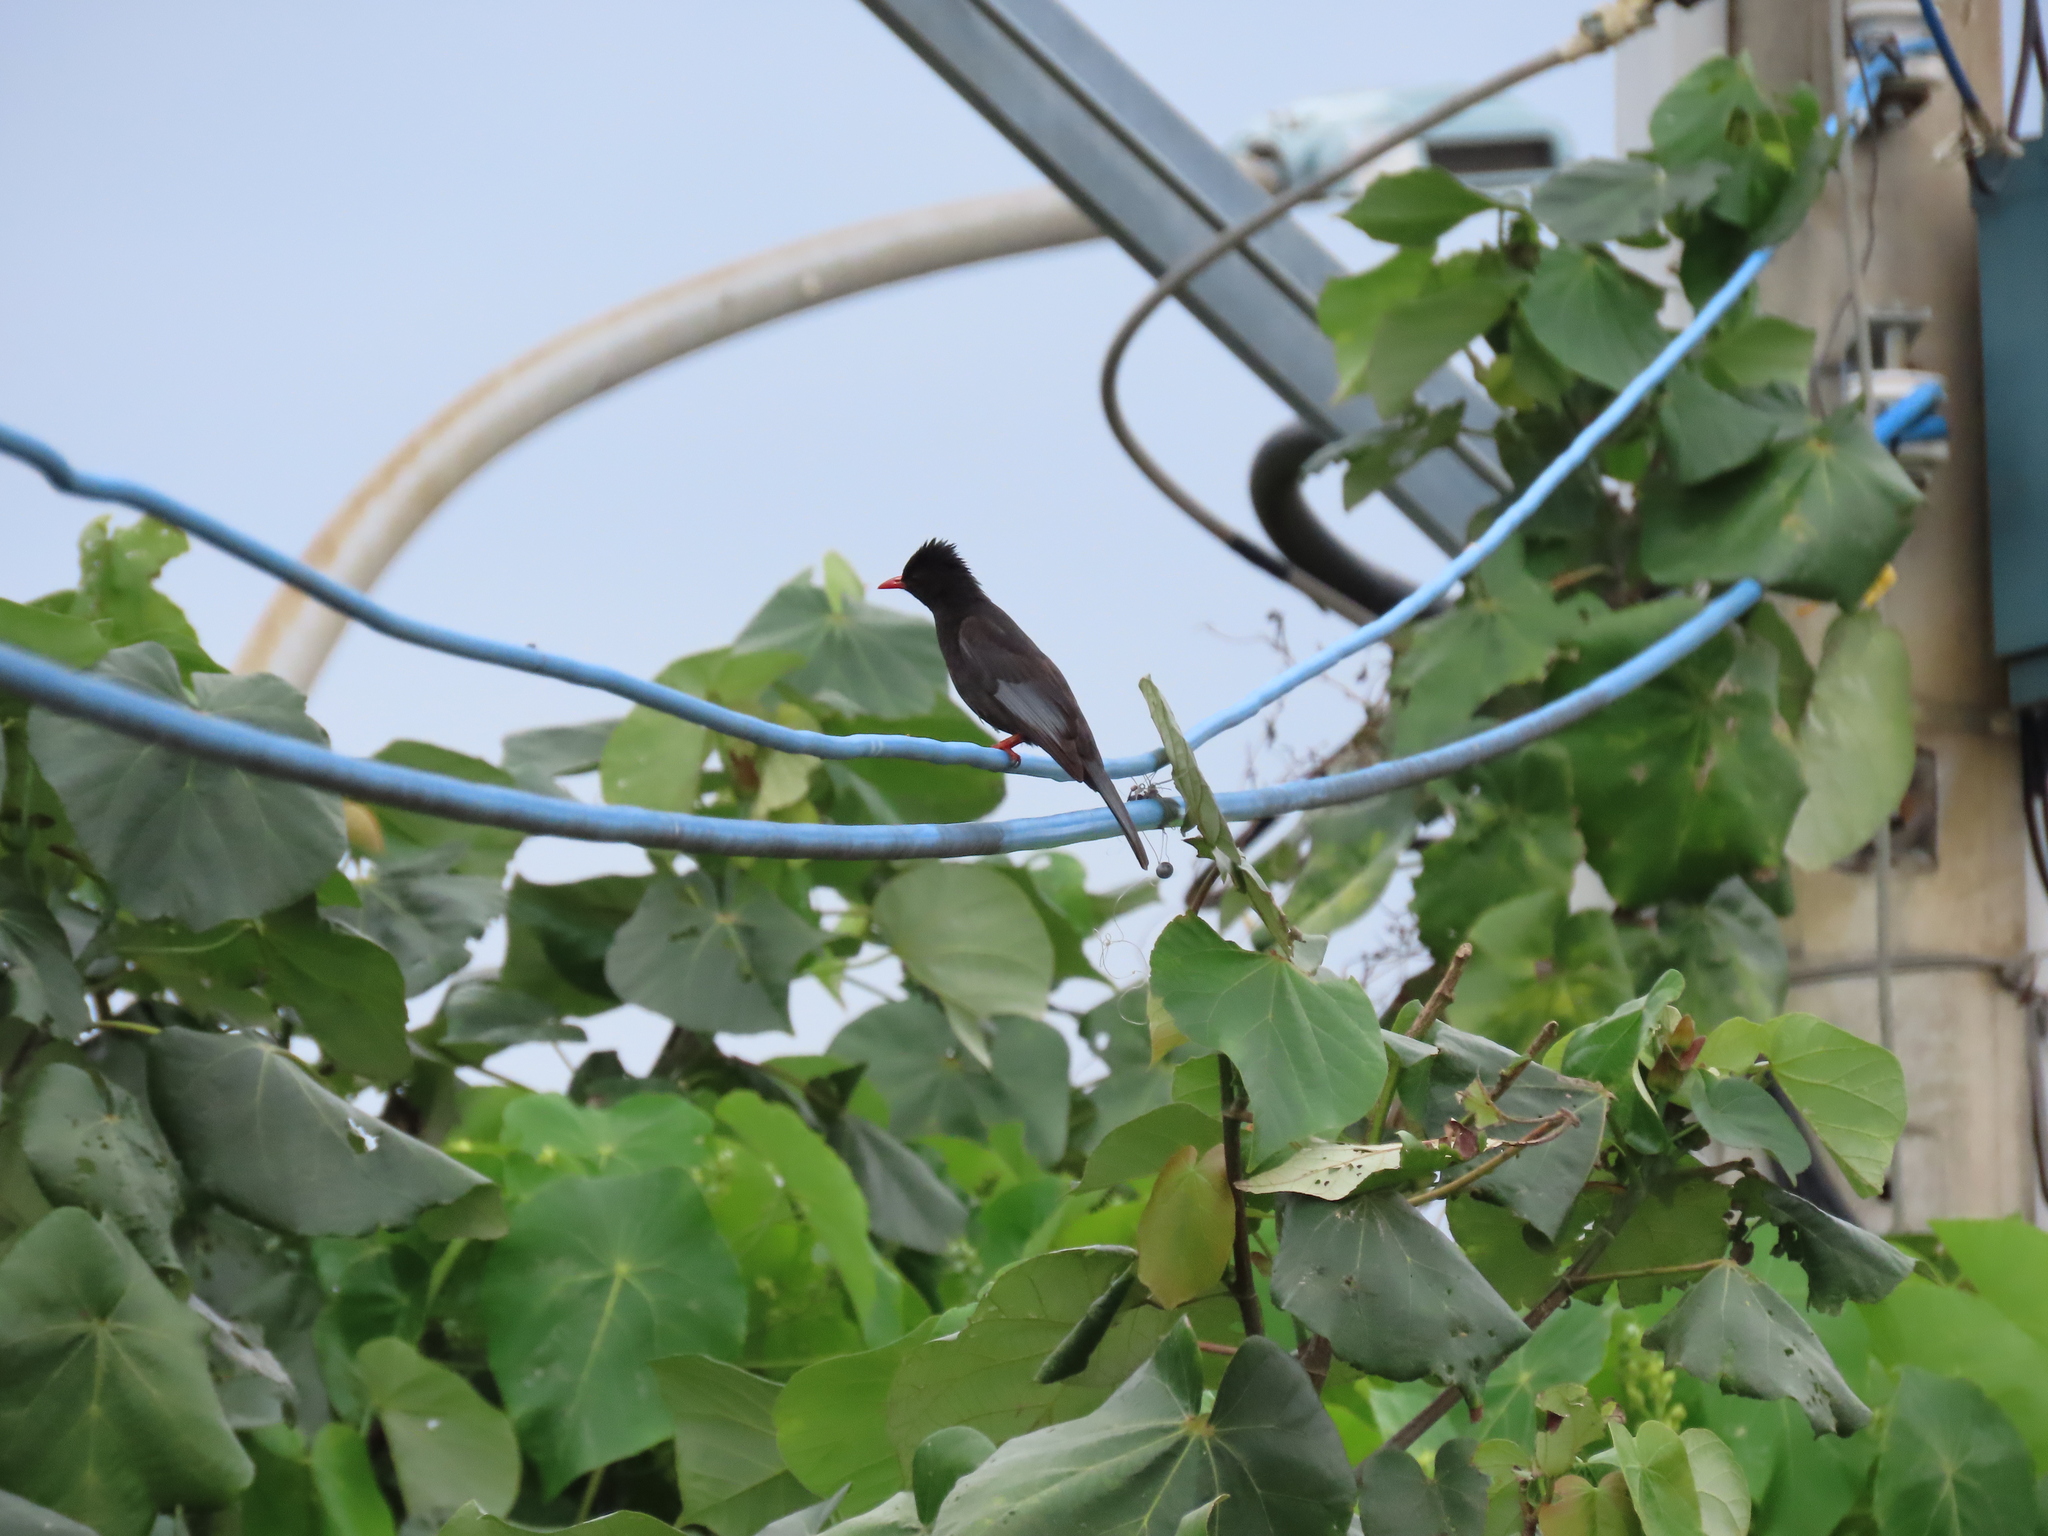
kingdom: Animalia
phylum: Chordata
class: Aves
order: Passeriformes
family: Pycnonotidae
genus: Hypsipetes
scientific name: Hypsipetes leucocephalus
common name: Black bulbul
